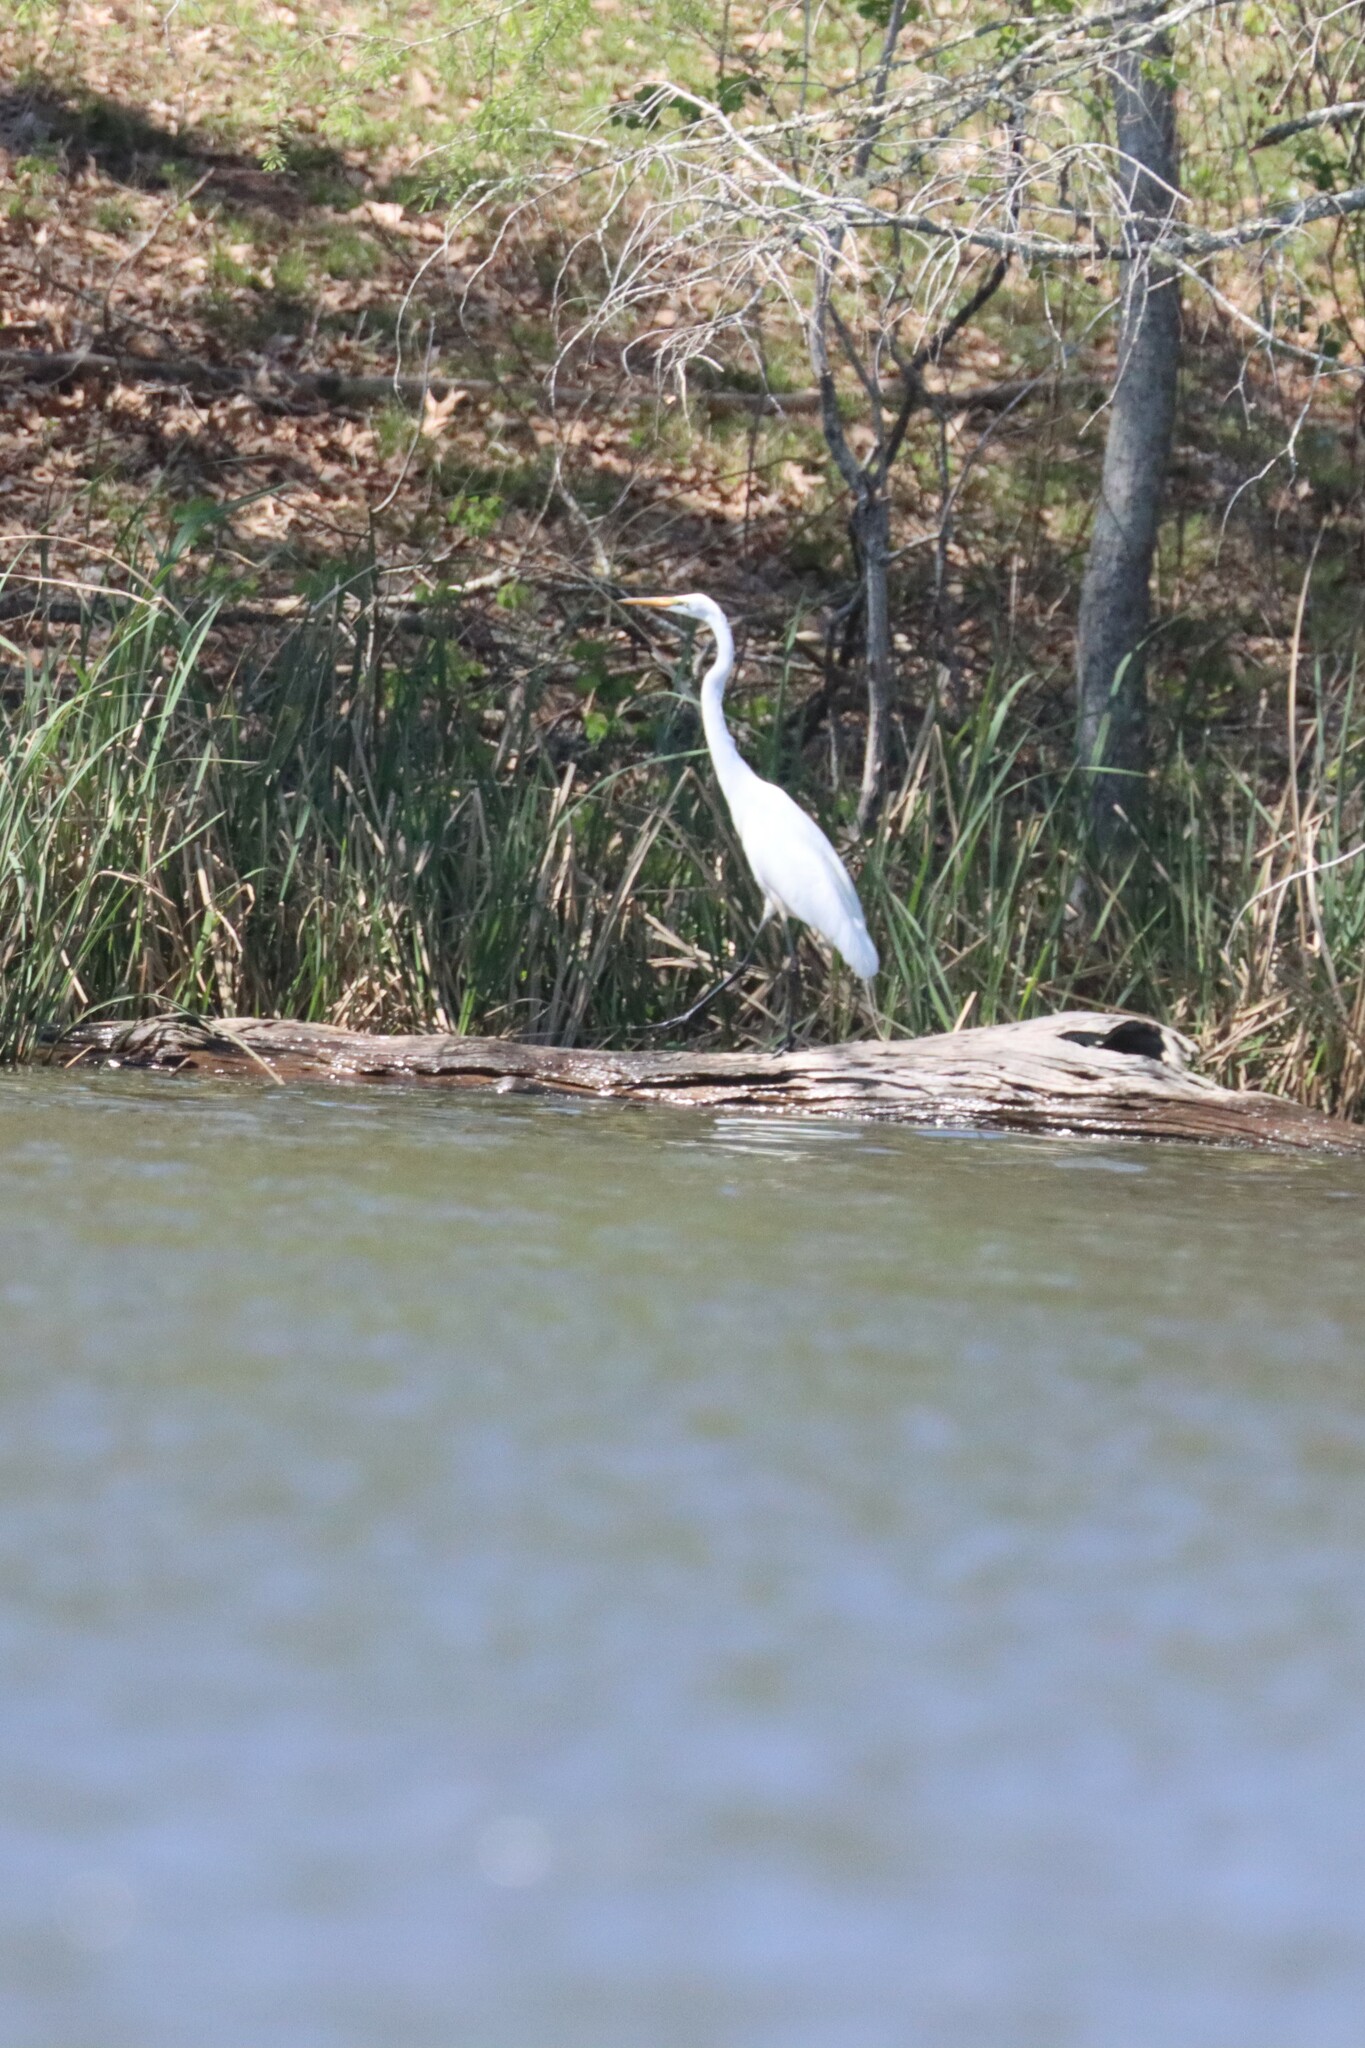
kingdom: Animalia
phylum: Chordata
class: Aves
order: Pelecaniformes
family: Ardeidae
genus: Ardea
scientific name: Ardea alba
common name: Great egret
